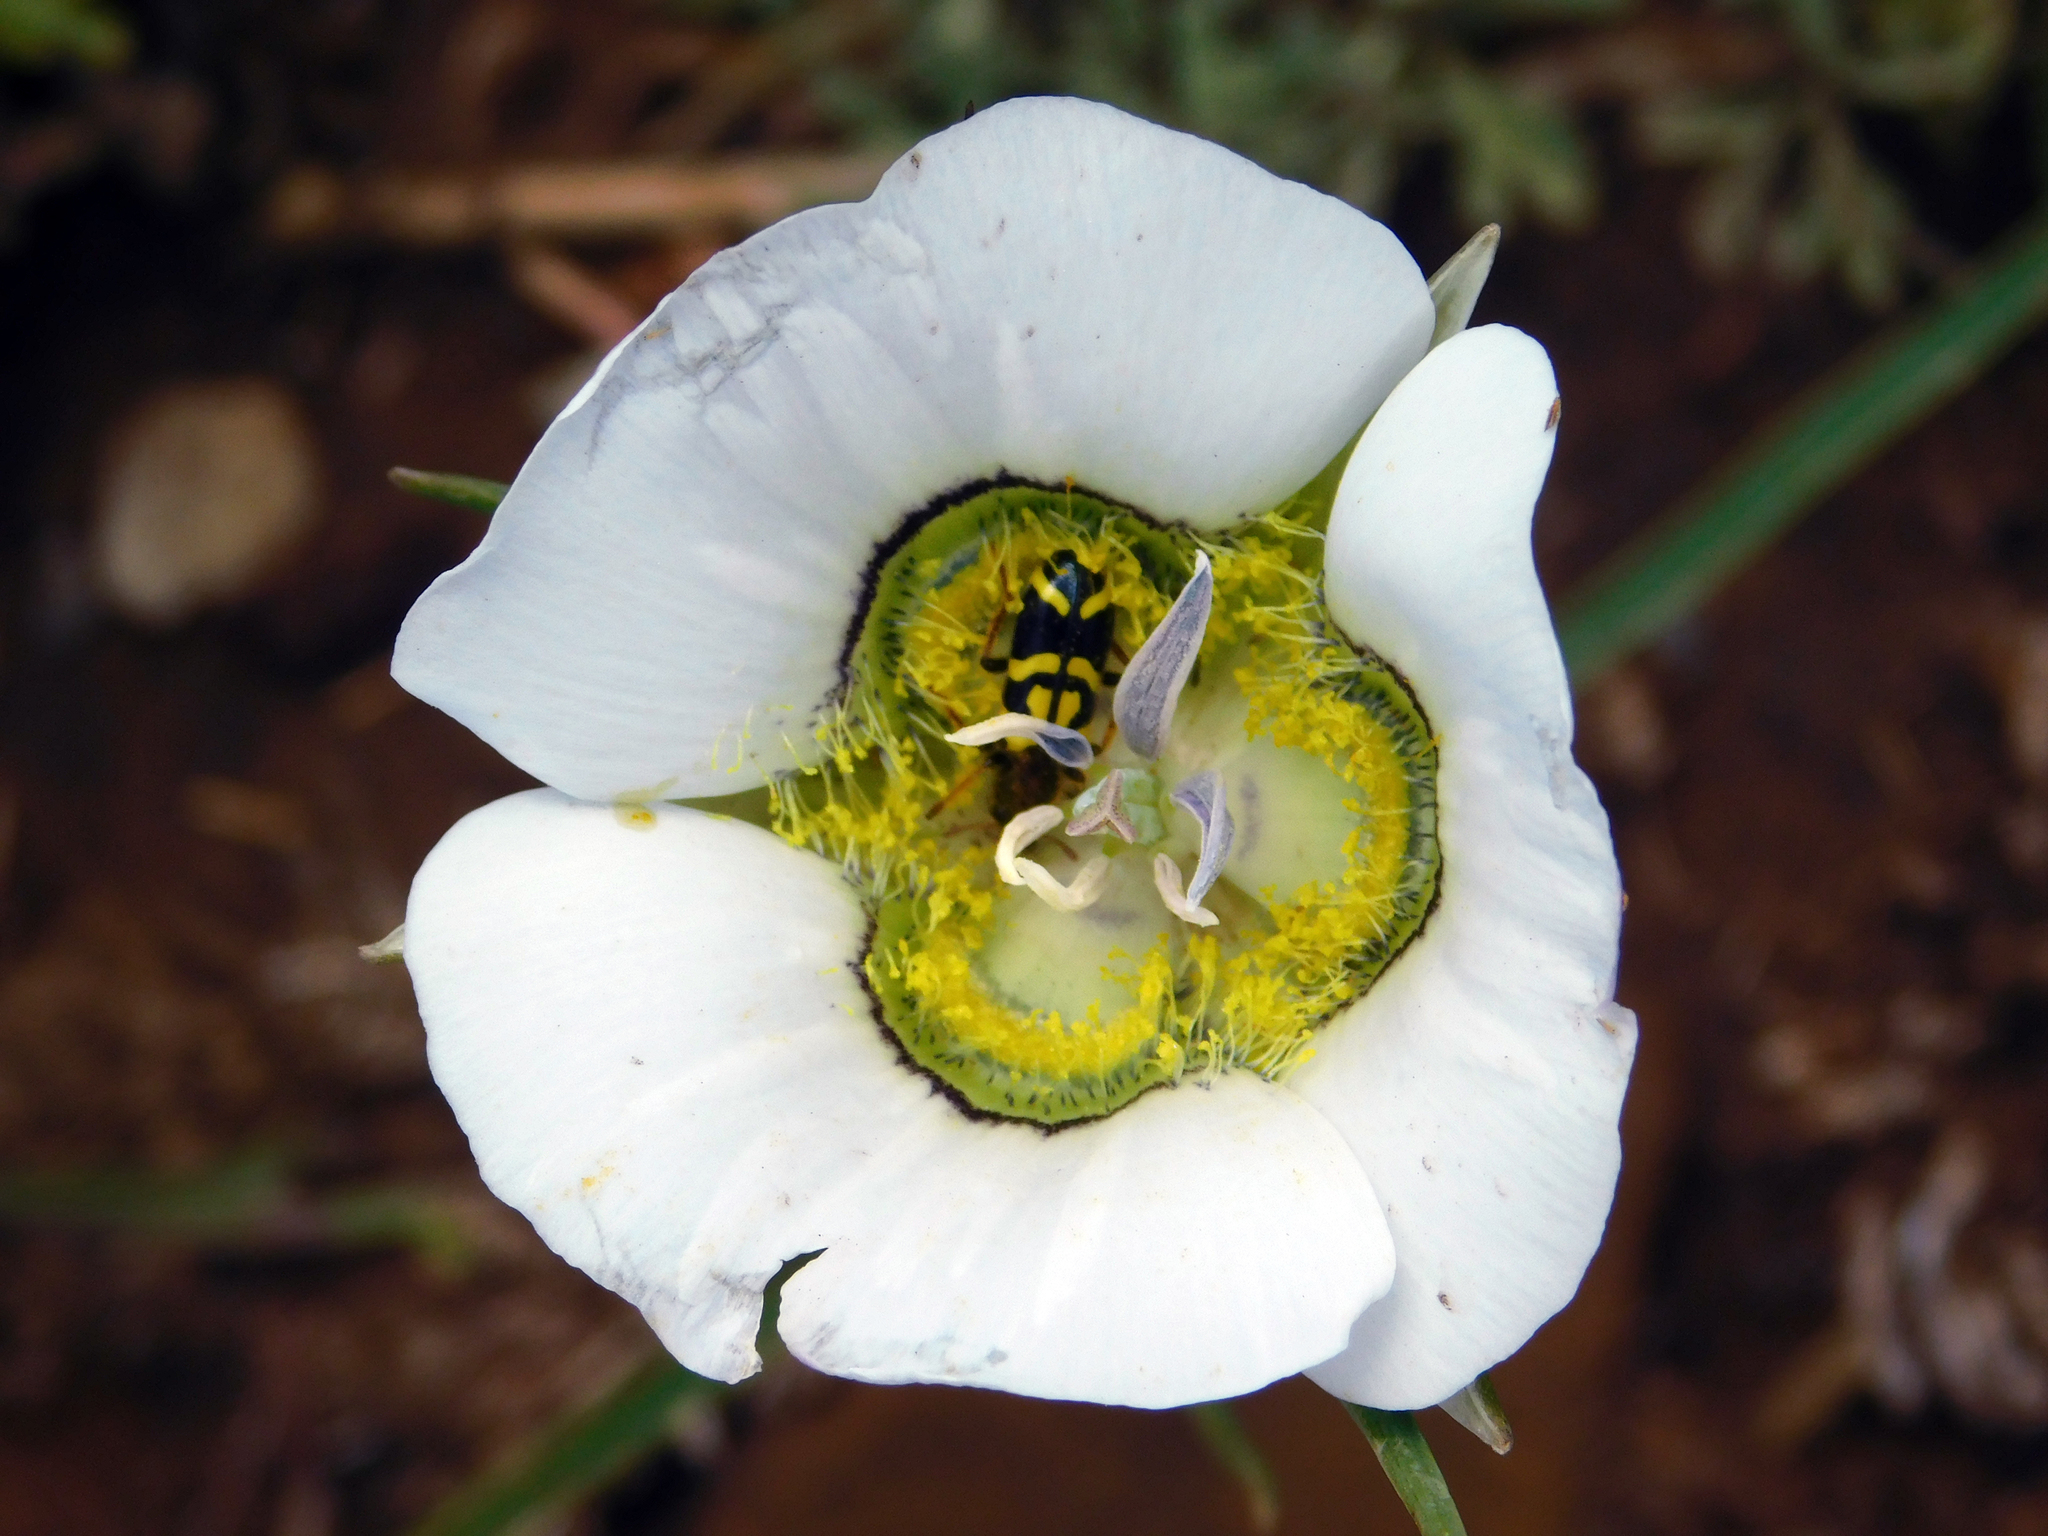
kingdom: Plantae
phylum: Tracheophyta
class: Liliopsida
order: Liliales
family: Liliaceae
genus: Calochortus
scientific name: Calochortus gunnisonii
